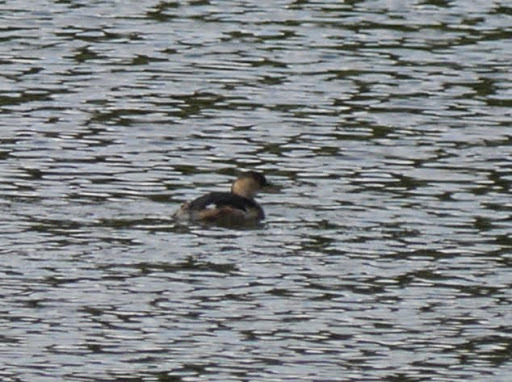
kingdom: Animalia
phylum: Chordata
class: Aves
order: Podicipediformes
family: Podicipedidae
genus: Tachybaptus
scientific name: Tachybaptus ruficollis
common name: Little grebe
